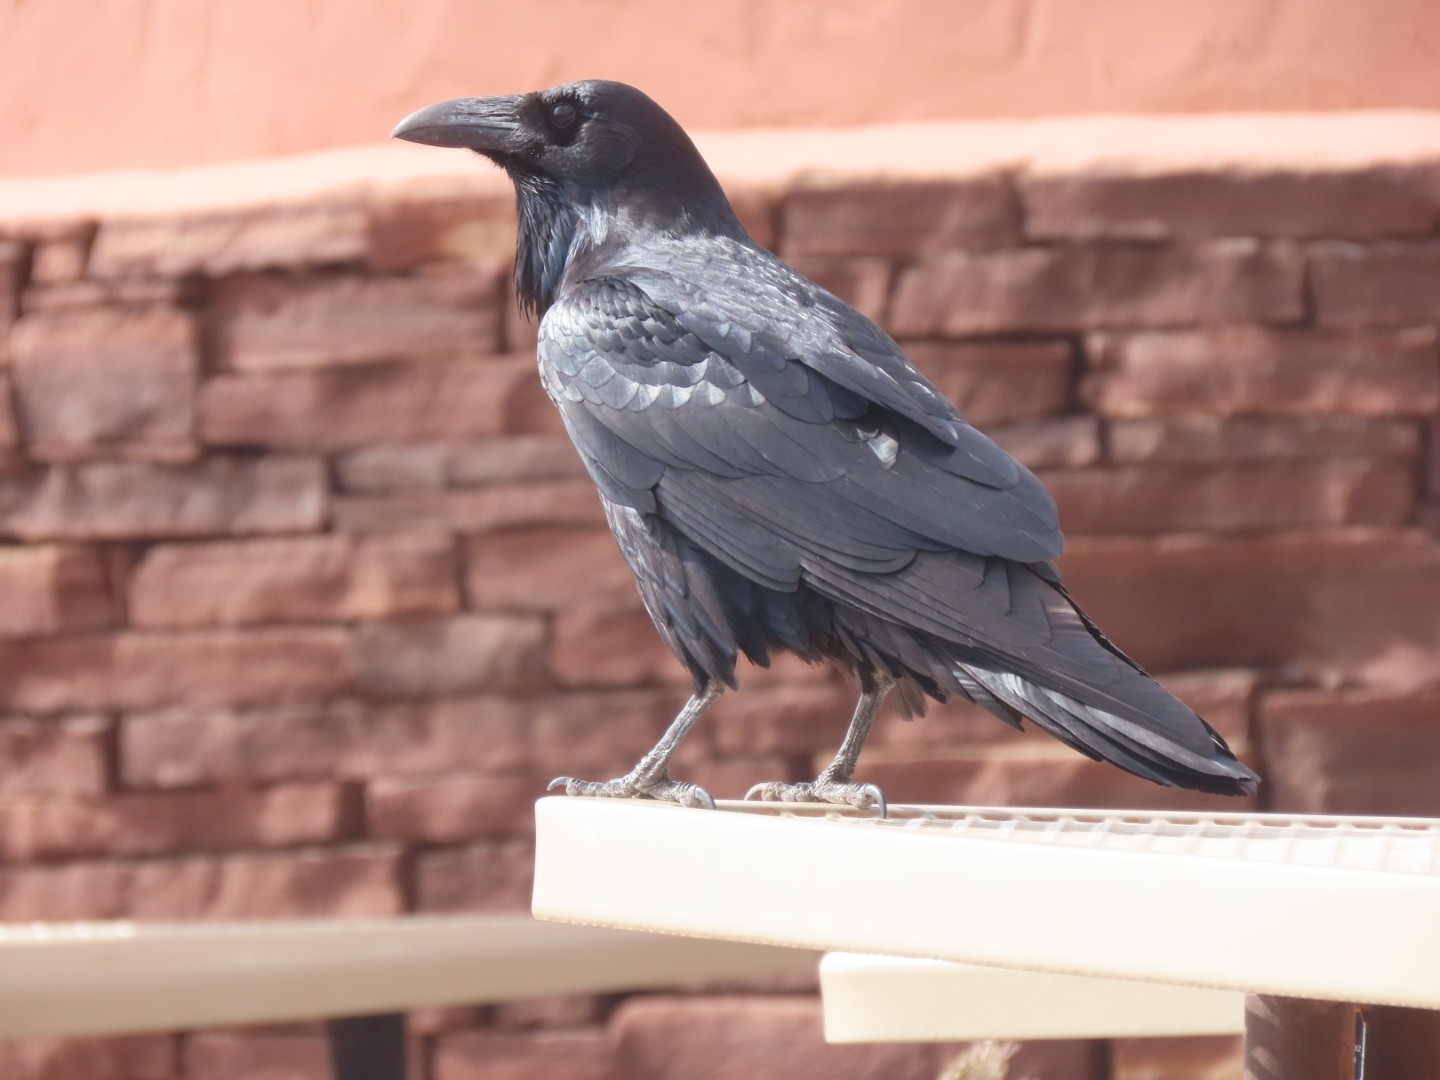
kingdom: Animalia
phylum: Chordata
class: Aves
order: Passeriformes
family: Corvidae
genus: Corvus
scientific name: Corvus corax
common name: Common raven
